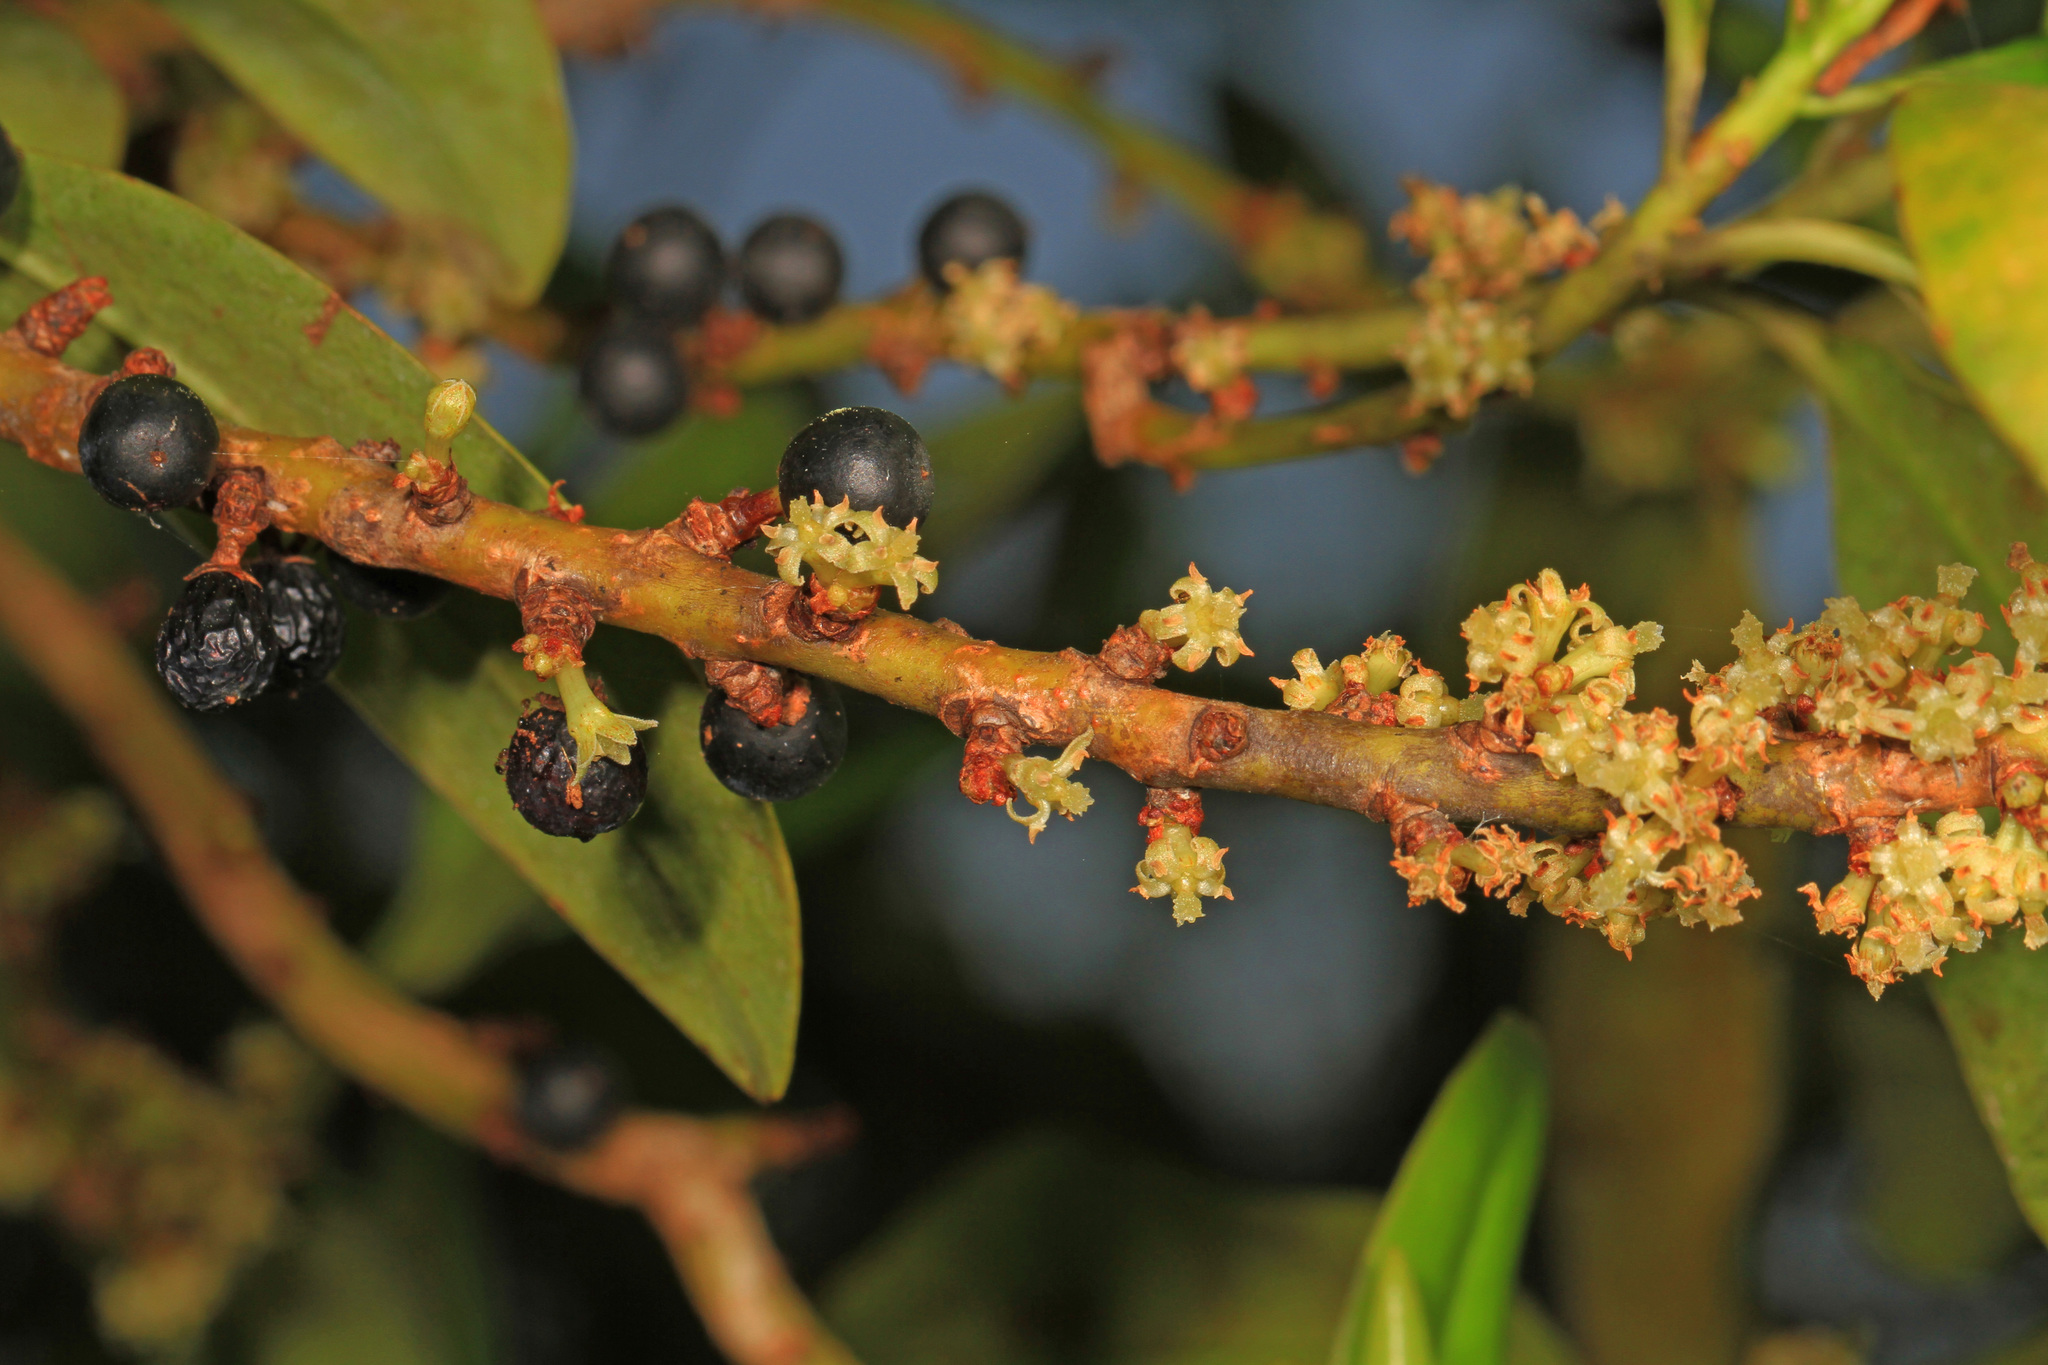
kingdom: Plantae
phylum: Tracheophyta
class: Magnoliopsida
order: Ericales
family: Primulaceae
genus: Myrsine
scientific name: Myrsine floridana
